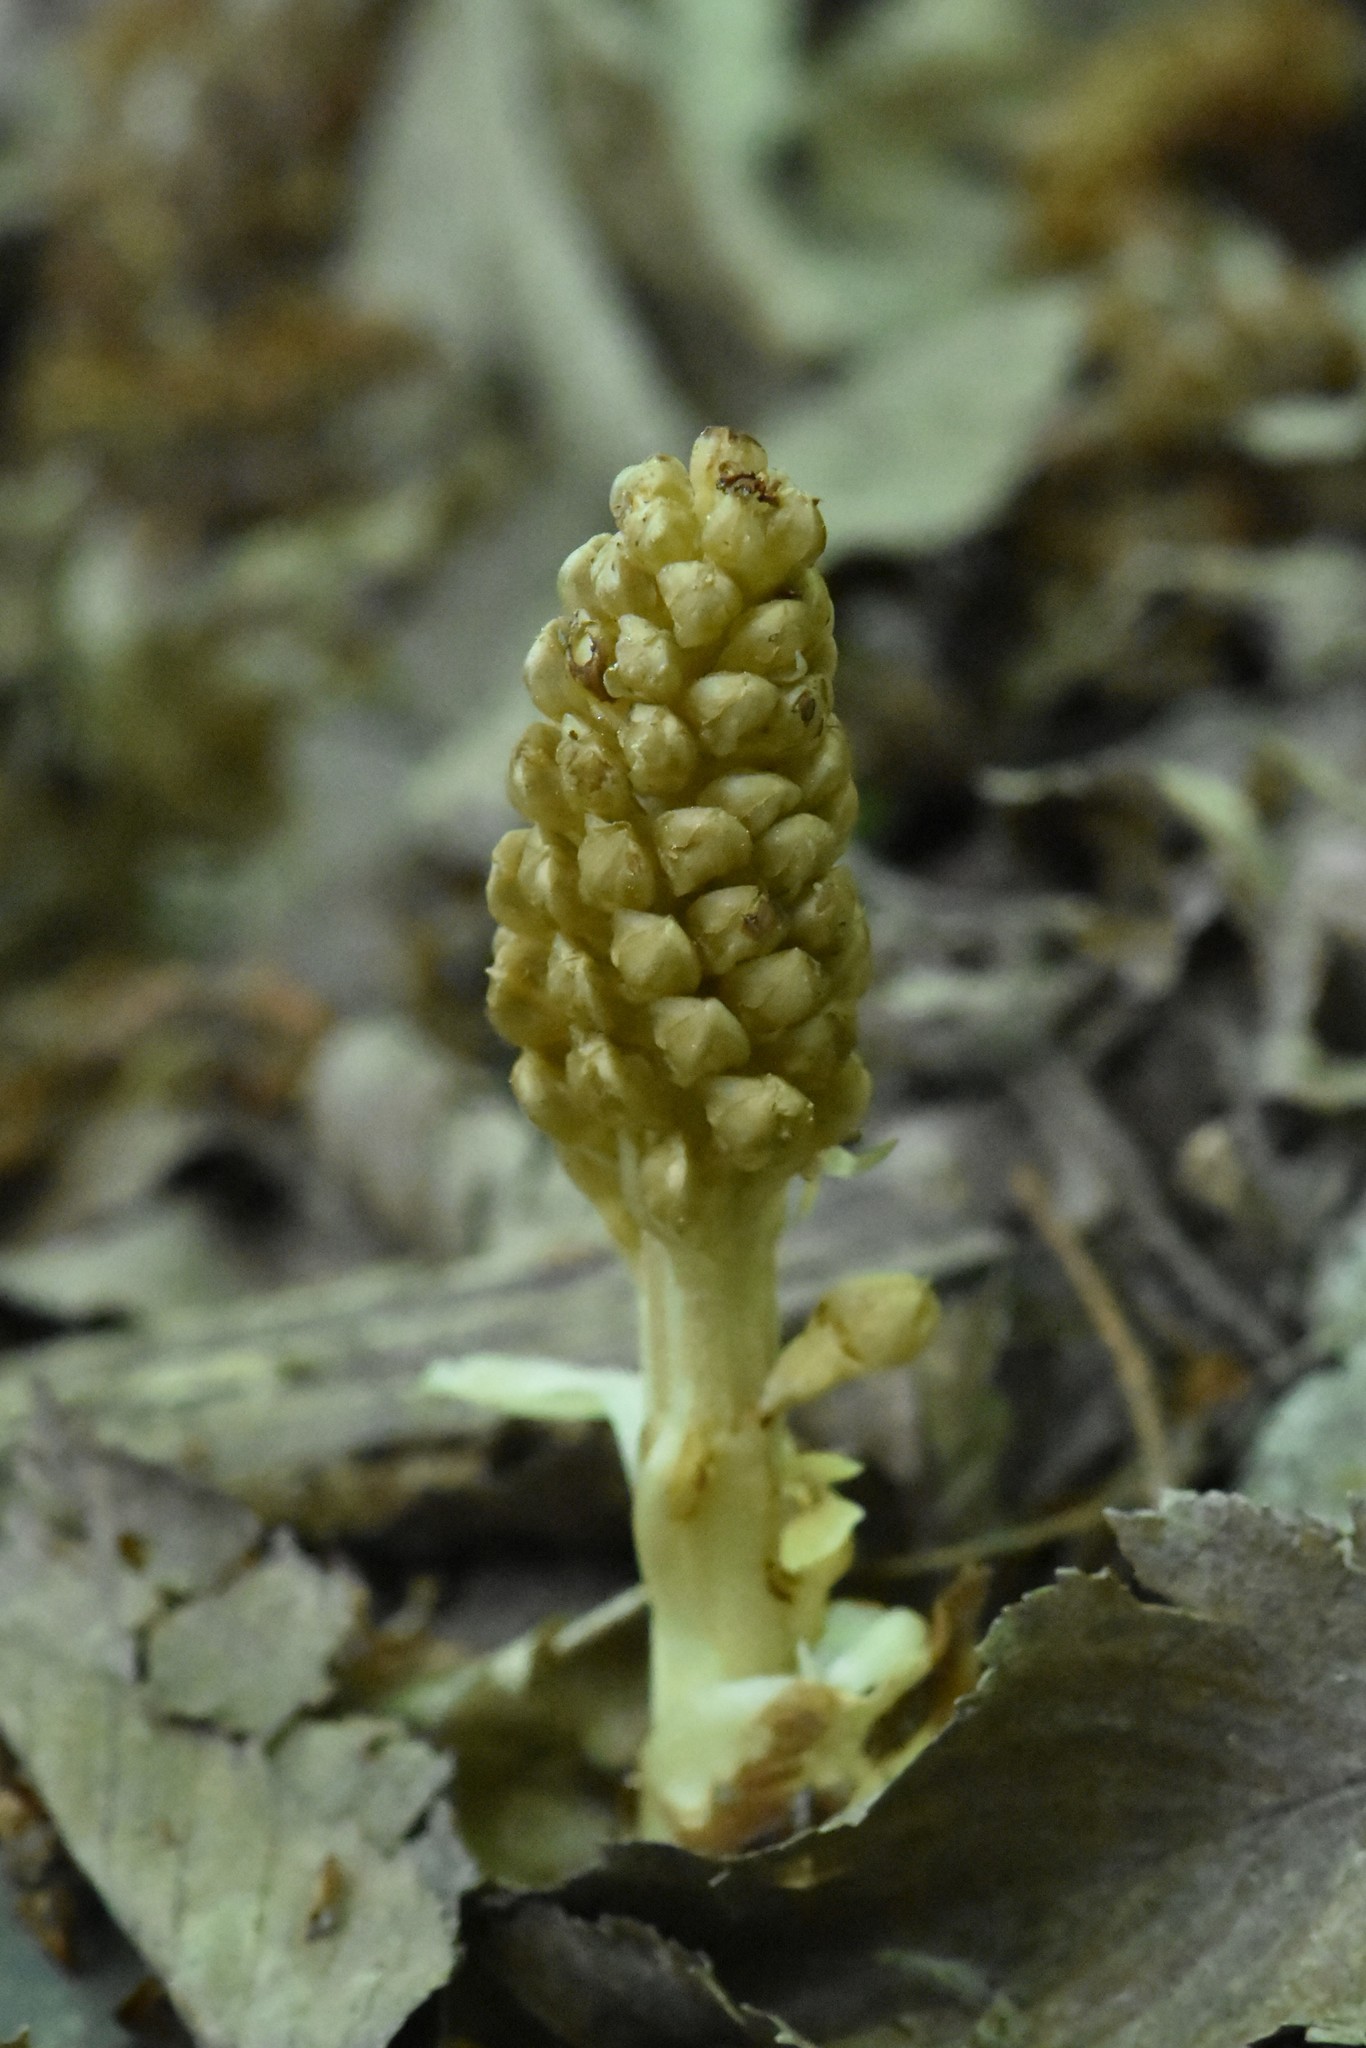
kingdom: Plantae
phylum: Tracheophyta
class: Liliopsida
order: Asparagales
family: Orchidaceae
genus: Neottia
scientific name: Neottia nidus-avis
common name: Bird's-nest orchid
